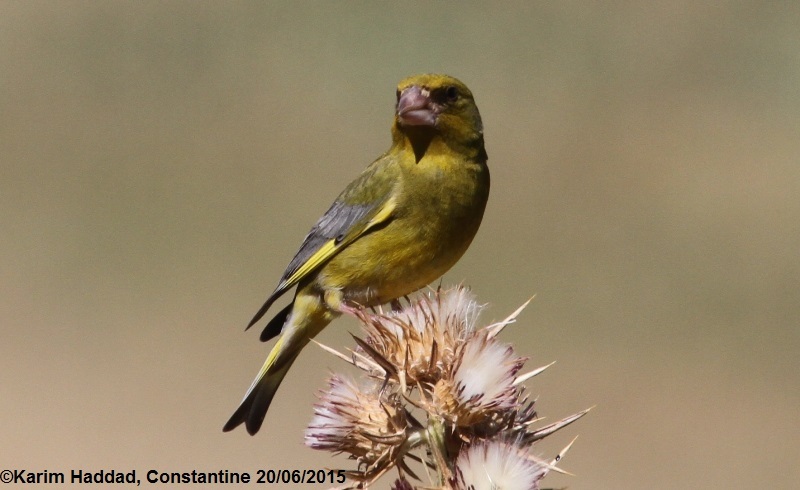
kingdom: Plantae
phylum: Tracheophyta
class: Liliopsida
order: Poales
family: Poaceae
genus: Chloris
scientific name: Chloris chloris
